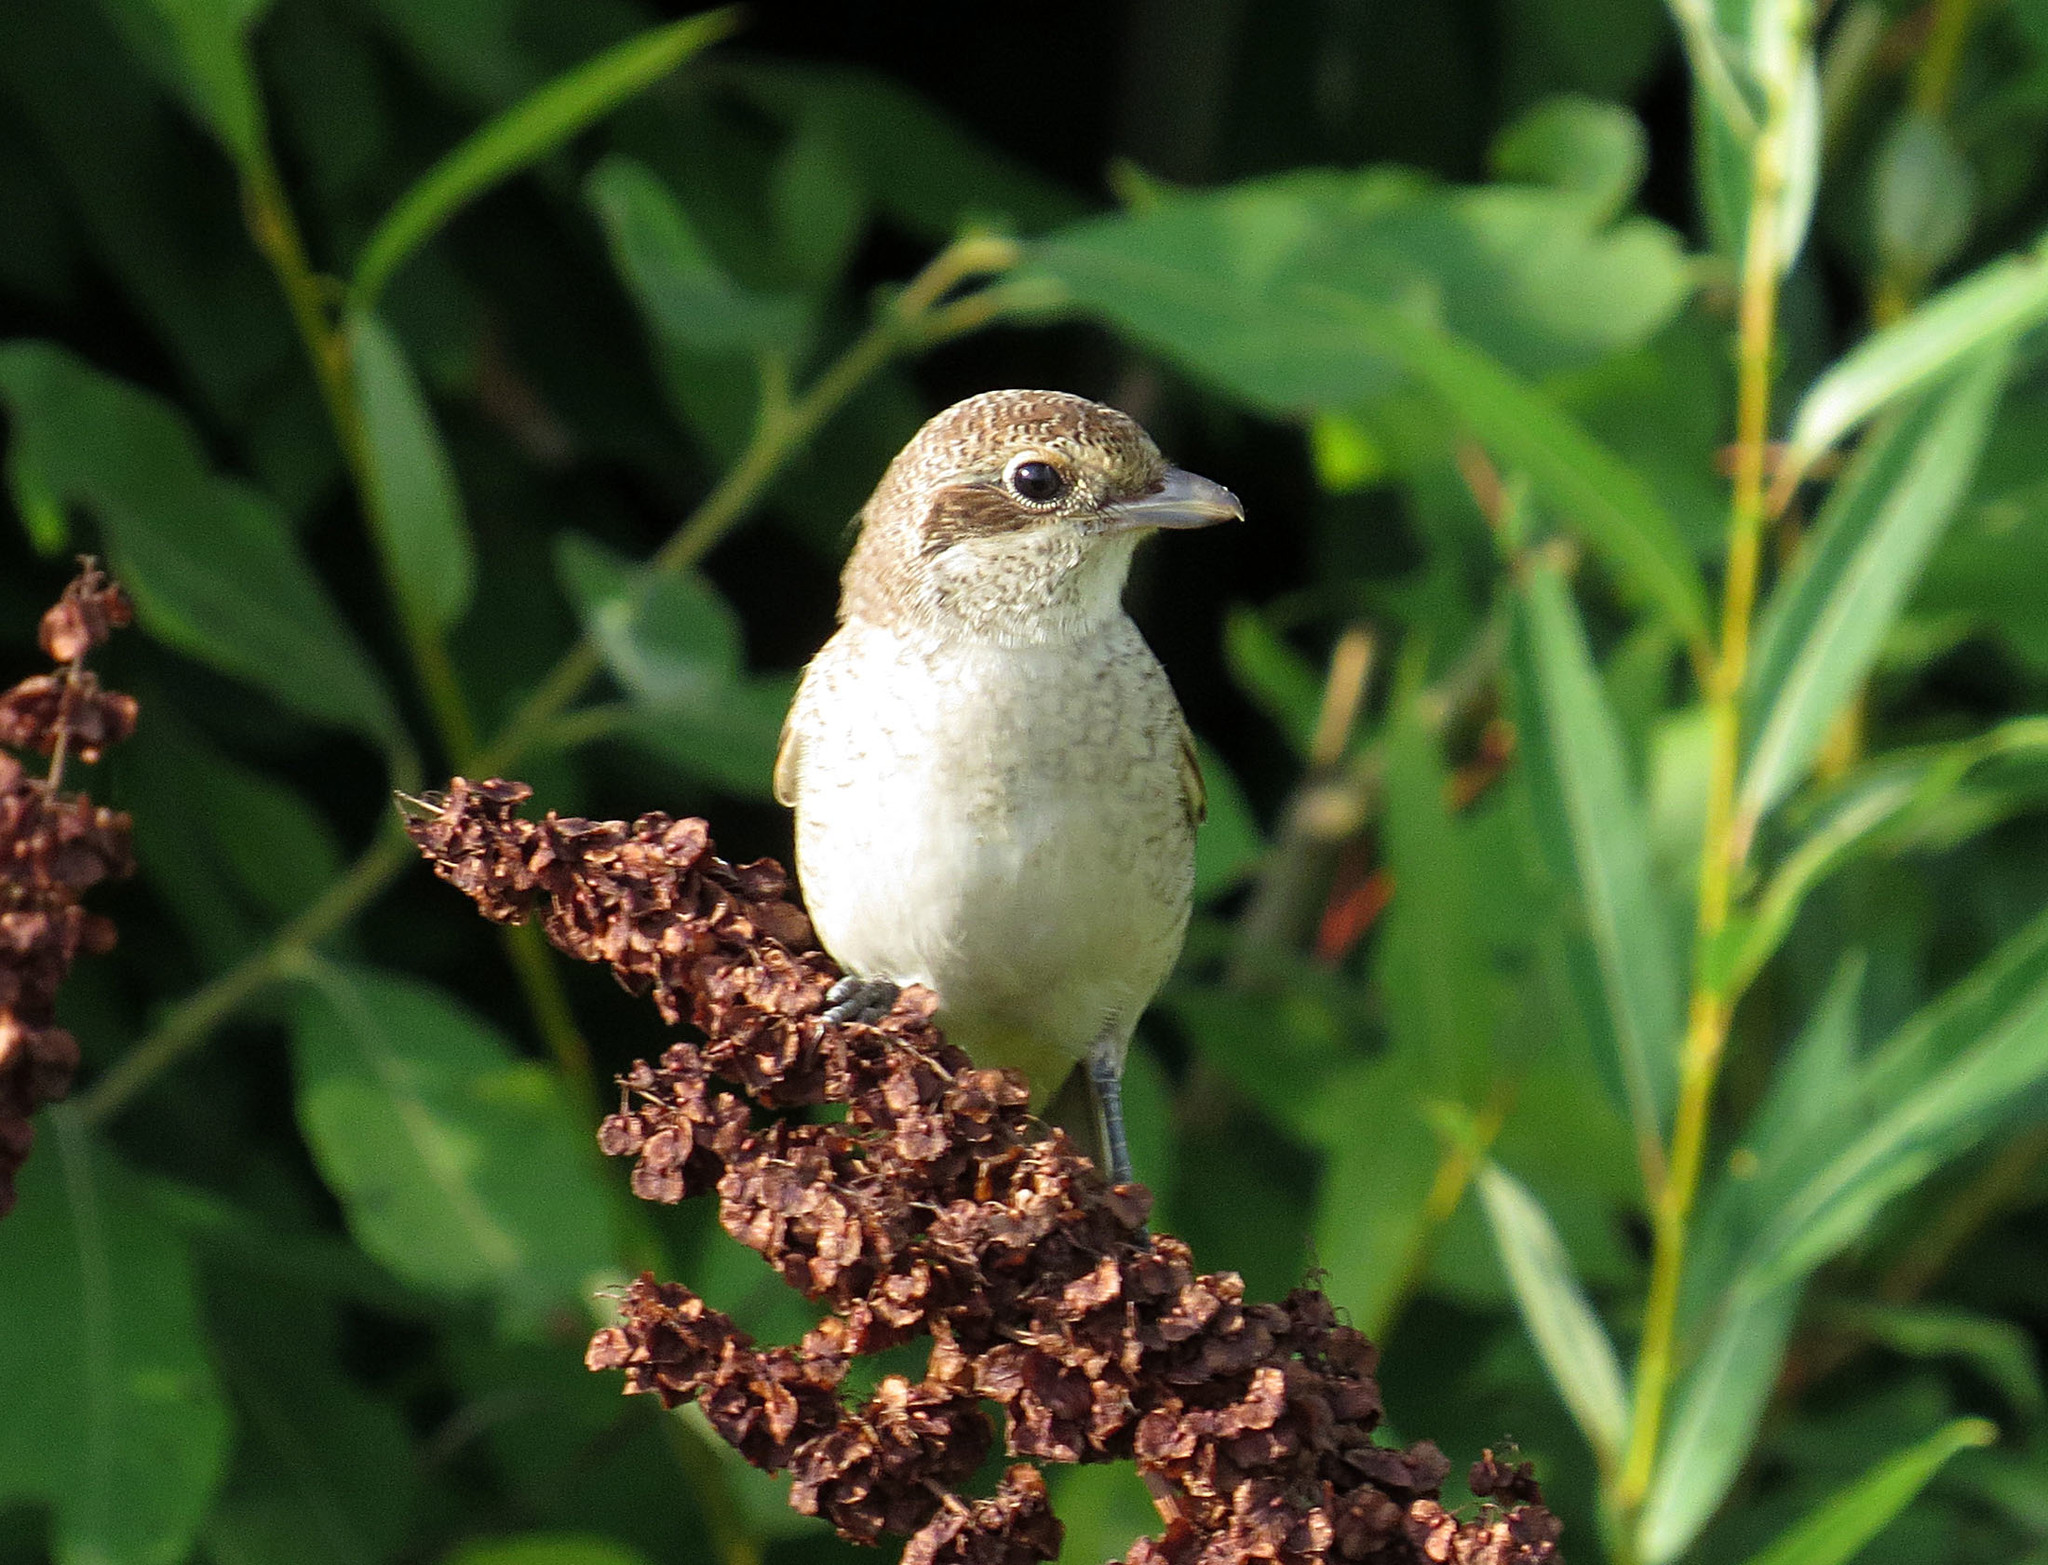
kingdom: Animalia
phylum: Chordata
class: Aves
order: Passeriformes
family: Laniidae
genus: Lanius
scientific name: Lanius collurio
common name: Red-backed shrike
